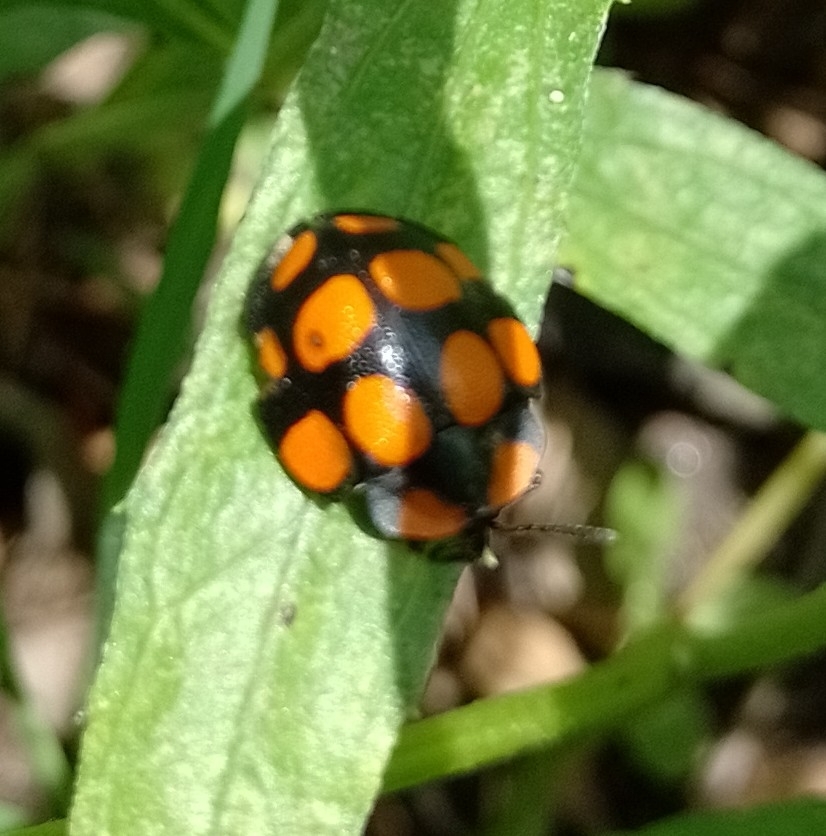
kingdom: Animalia
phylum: Arthropoda
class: Insecta
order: Coleoptera
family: Chrysomelidae
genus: Botanochara
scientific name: Botanochara decempustulata
